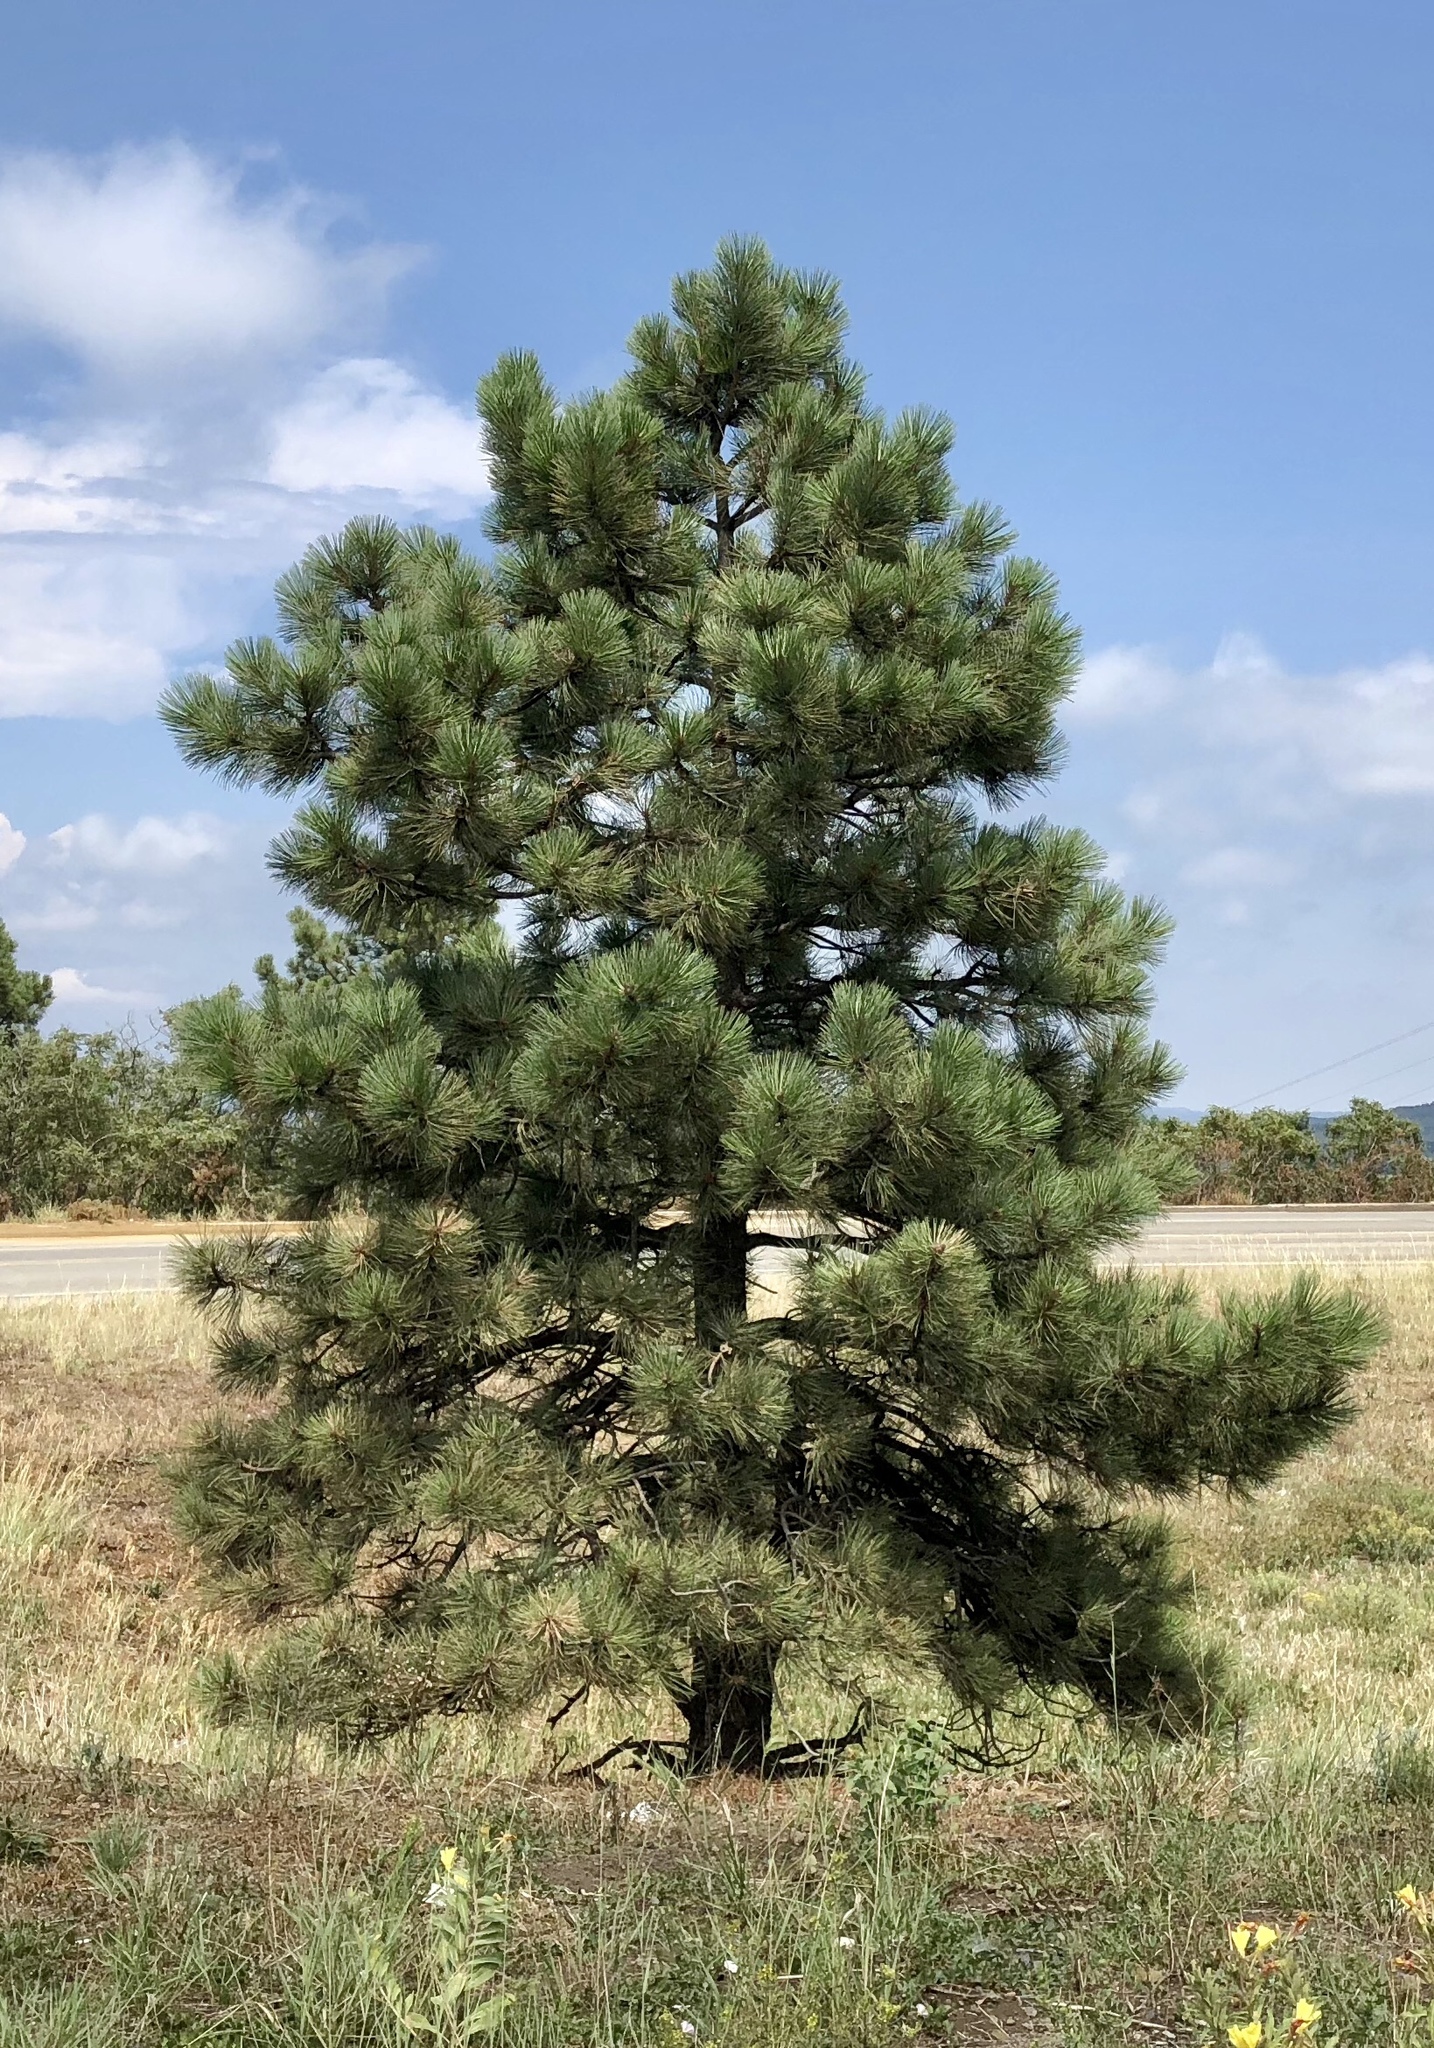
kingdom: Plantae
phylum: Tracheophyta
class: Pinopsida
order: Pinales
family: Pinaceae
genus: Pinus
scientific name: Pinus ponderosa
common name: Western yellow-pine
